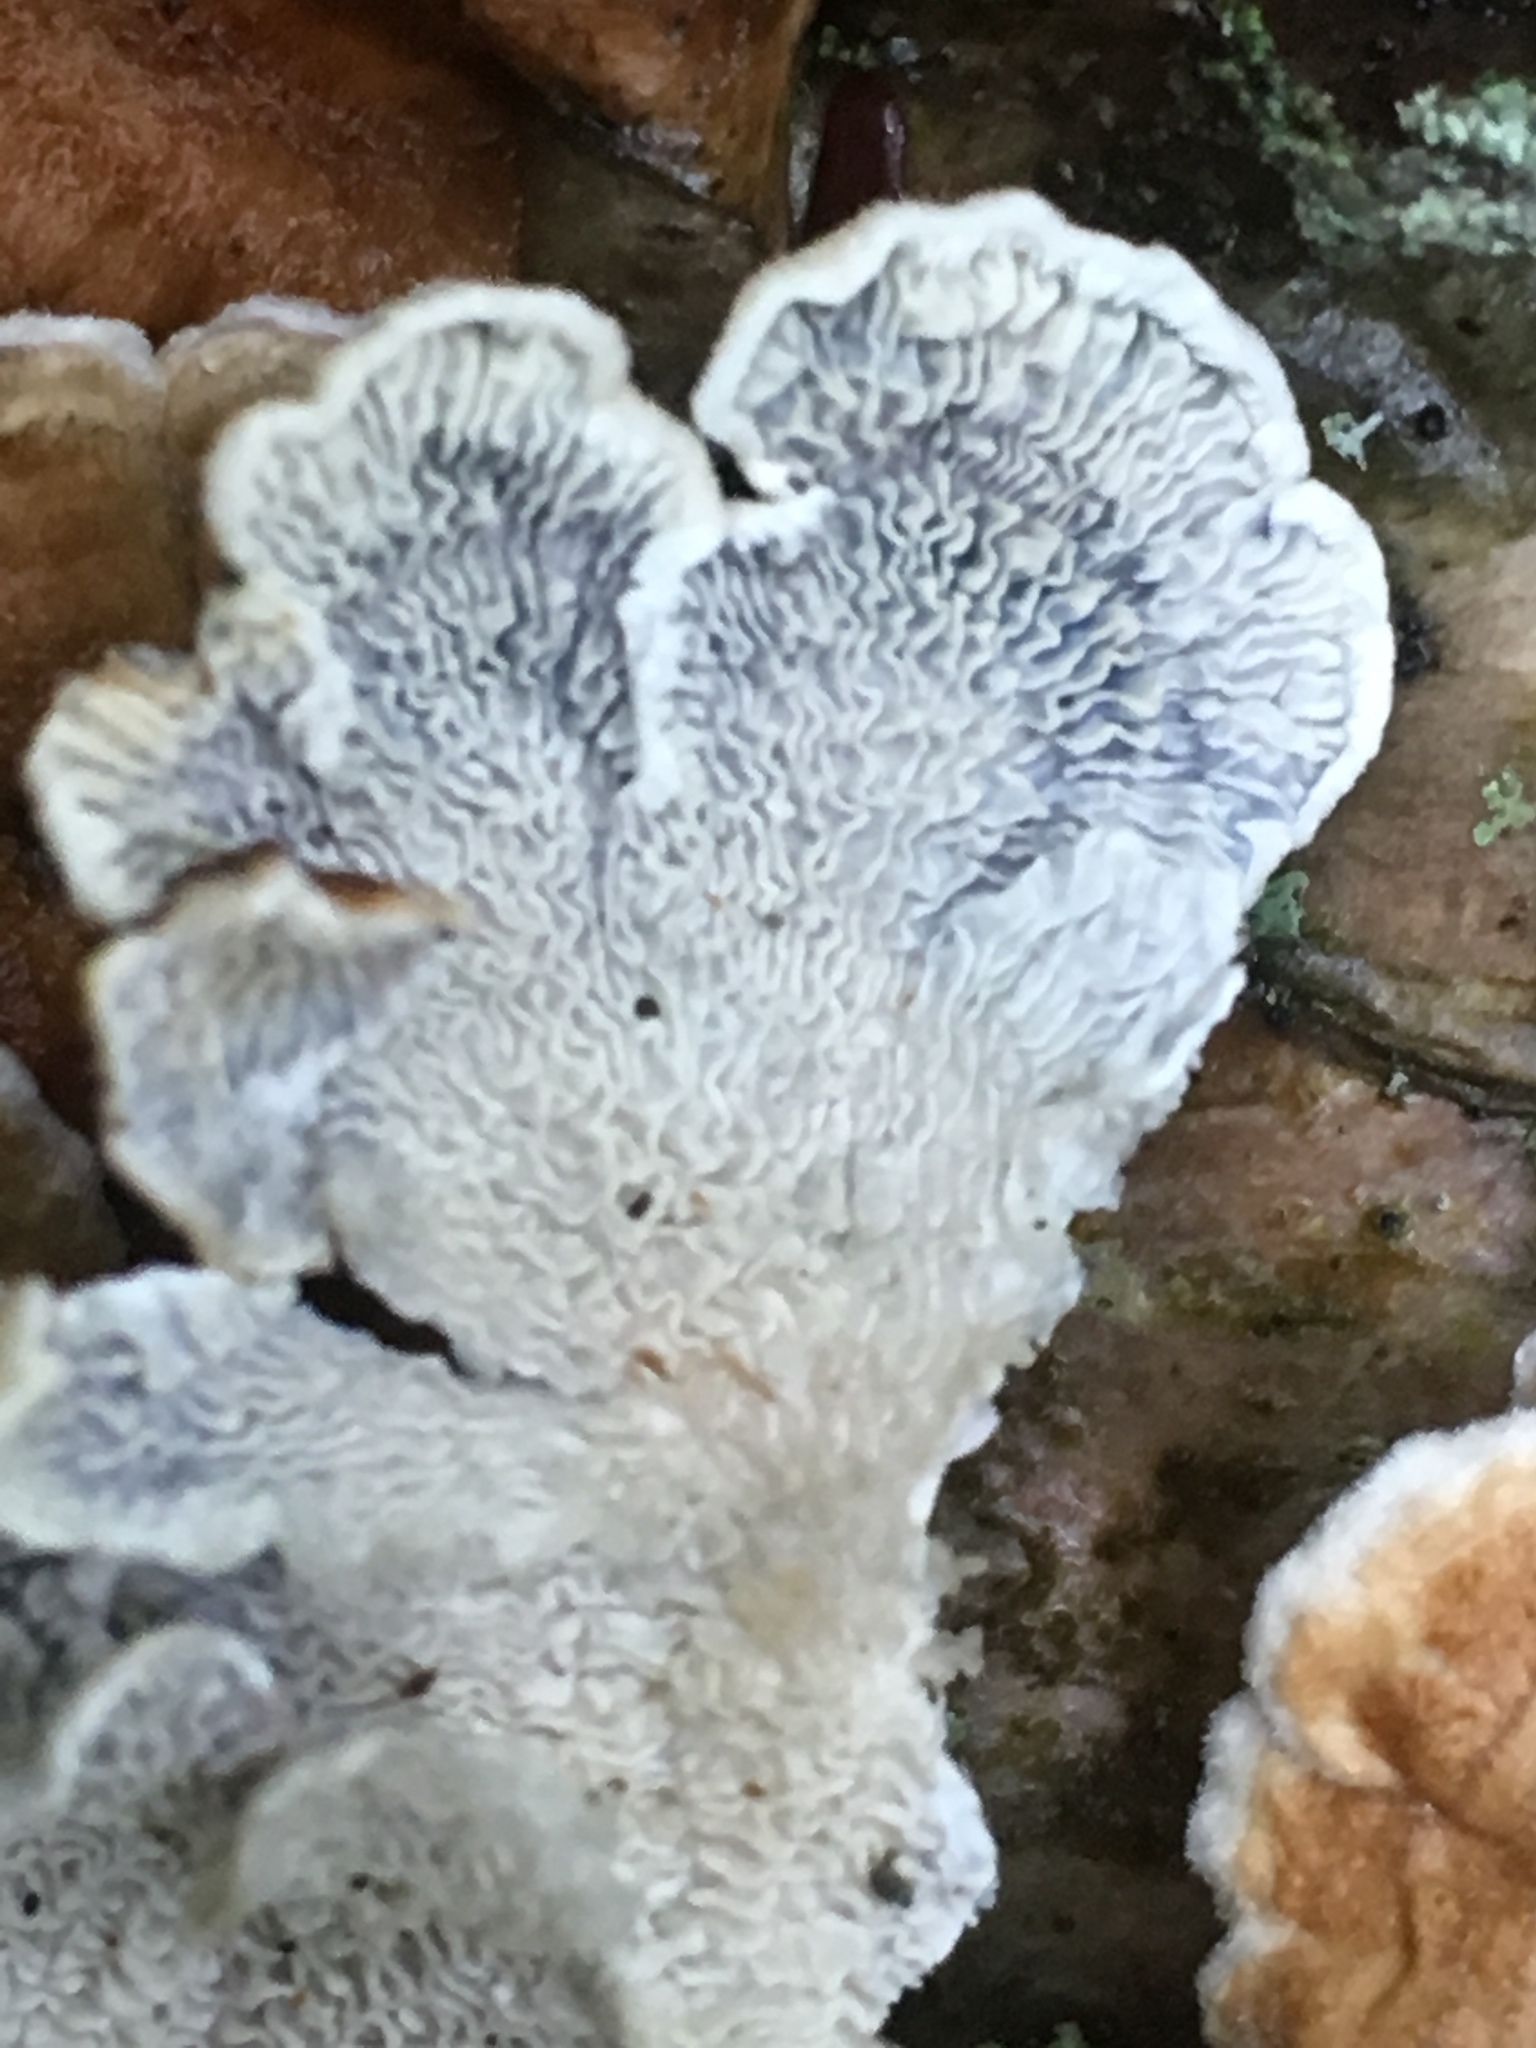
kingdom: Fungi
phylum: Basidiomycota
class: Agaricomycetes
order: Amylocorticiales
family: Amylocorticiaceae
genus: Plicaturopsis
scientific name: Plicaturopsis crispa
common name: Crimped gill
